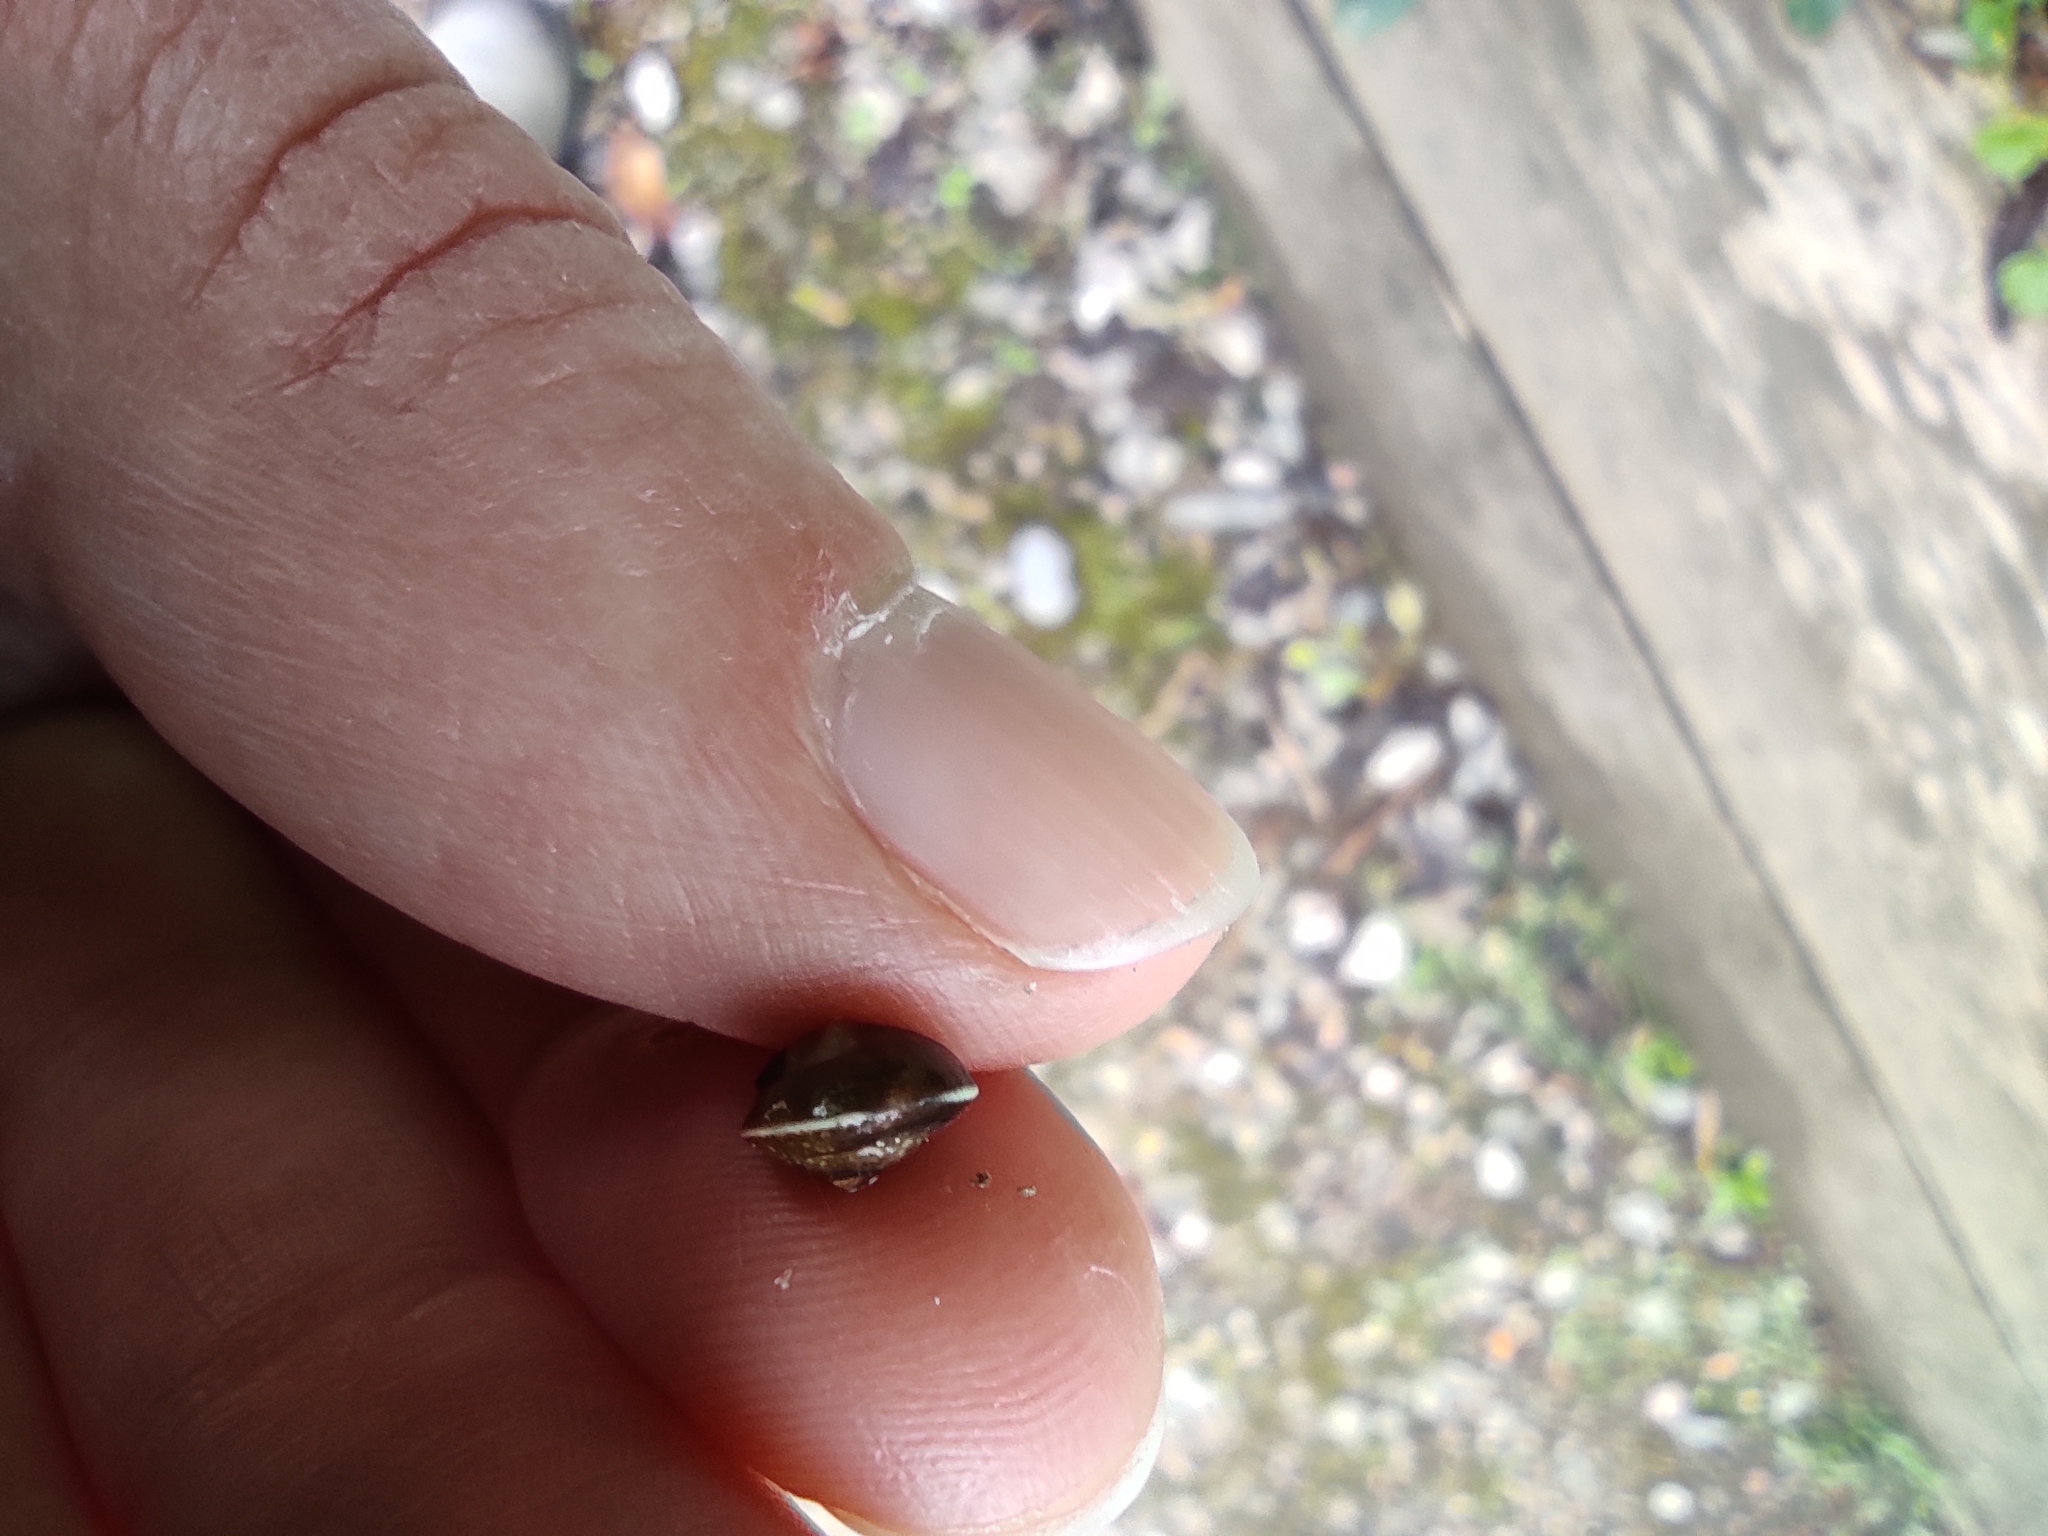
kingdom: Animalia
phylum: Mollusca
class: Gastropoda
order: Stylommatophora
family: Hygromiidae
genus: Hygromia
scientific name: Hygromia cinctella
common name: Girdled snail
